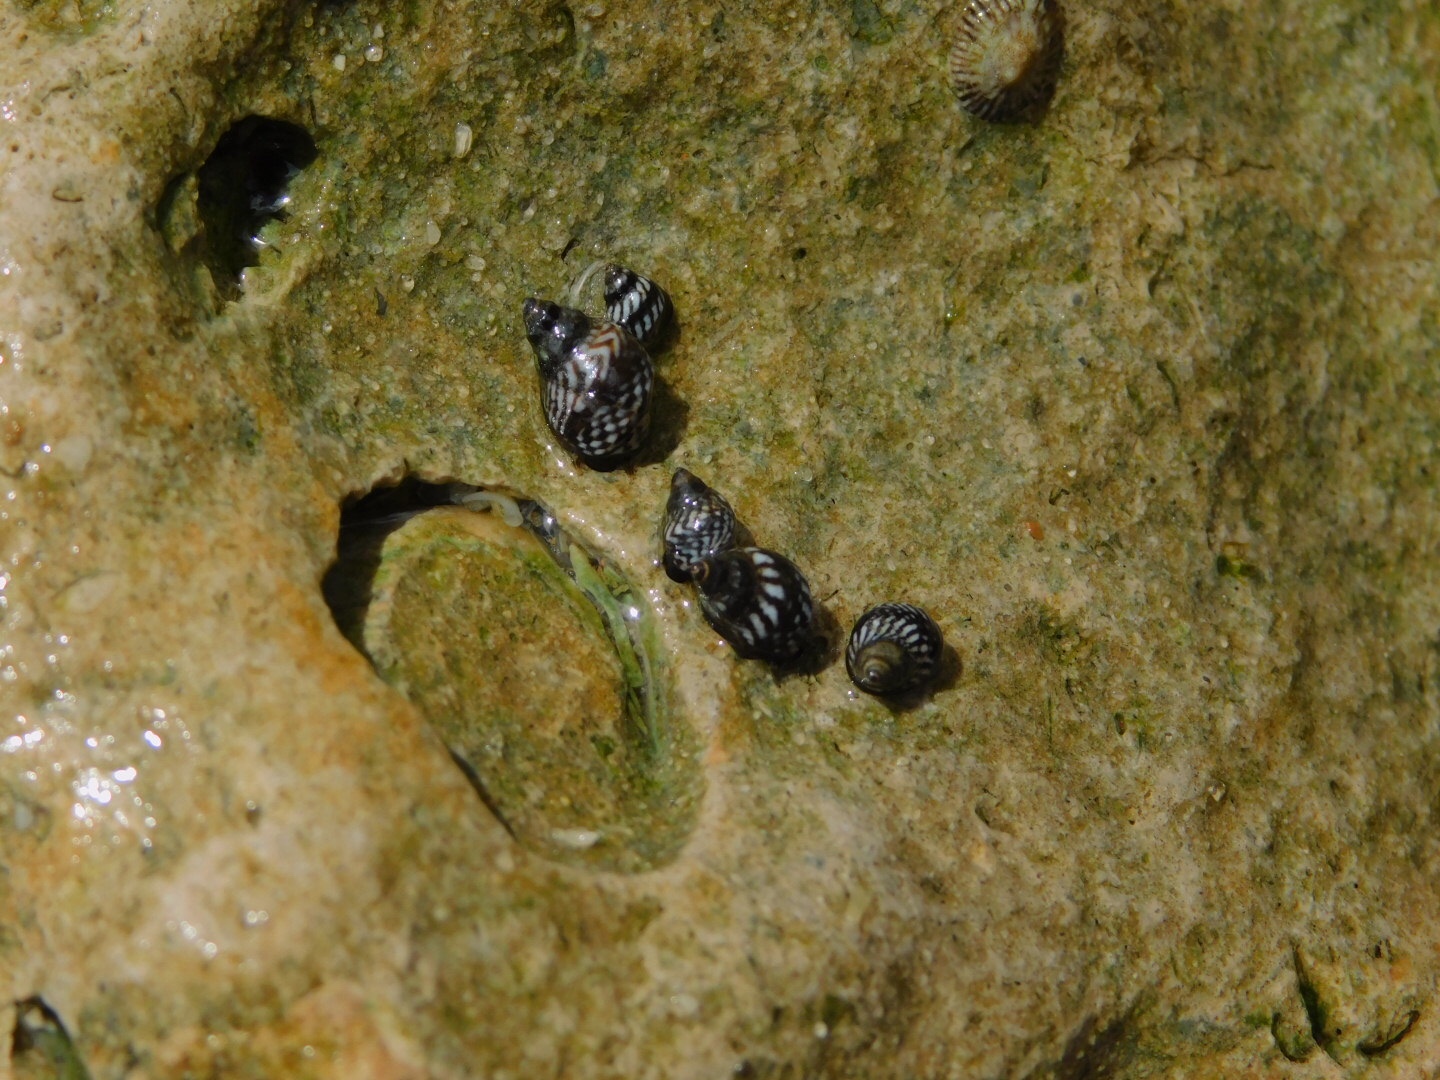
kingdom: Animalia
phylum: Mollusca
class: Gastropoda
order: Littorinimorpha
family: Littorinidae
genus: Echinolittorina
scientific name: Echinolittorina placida
